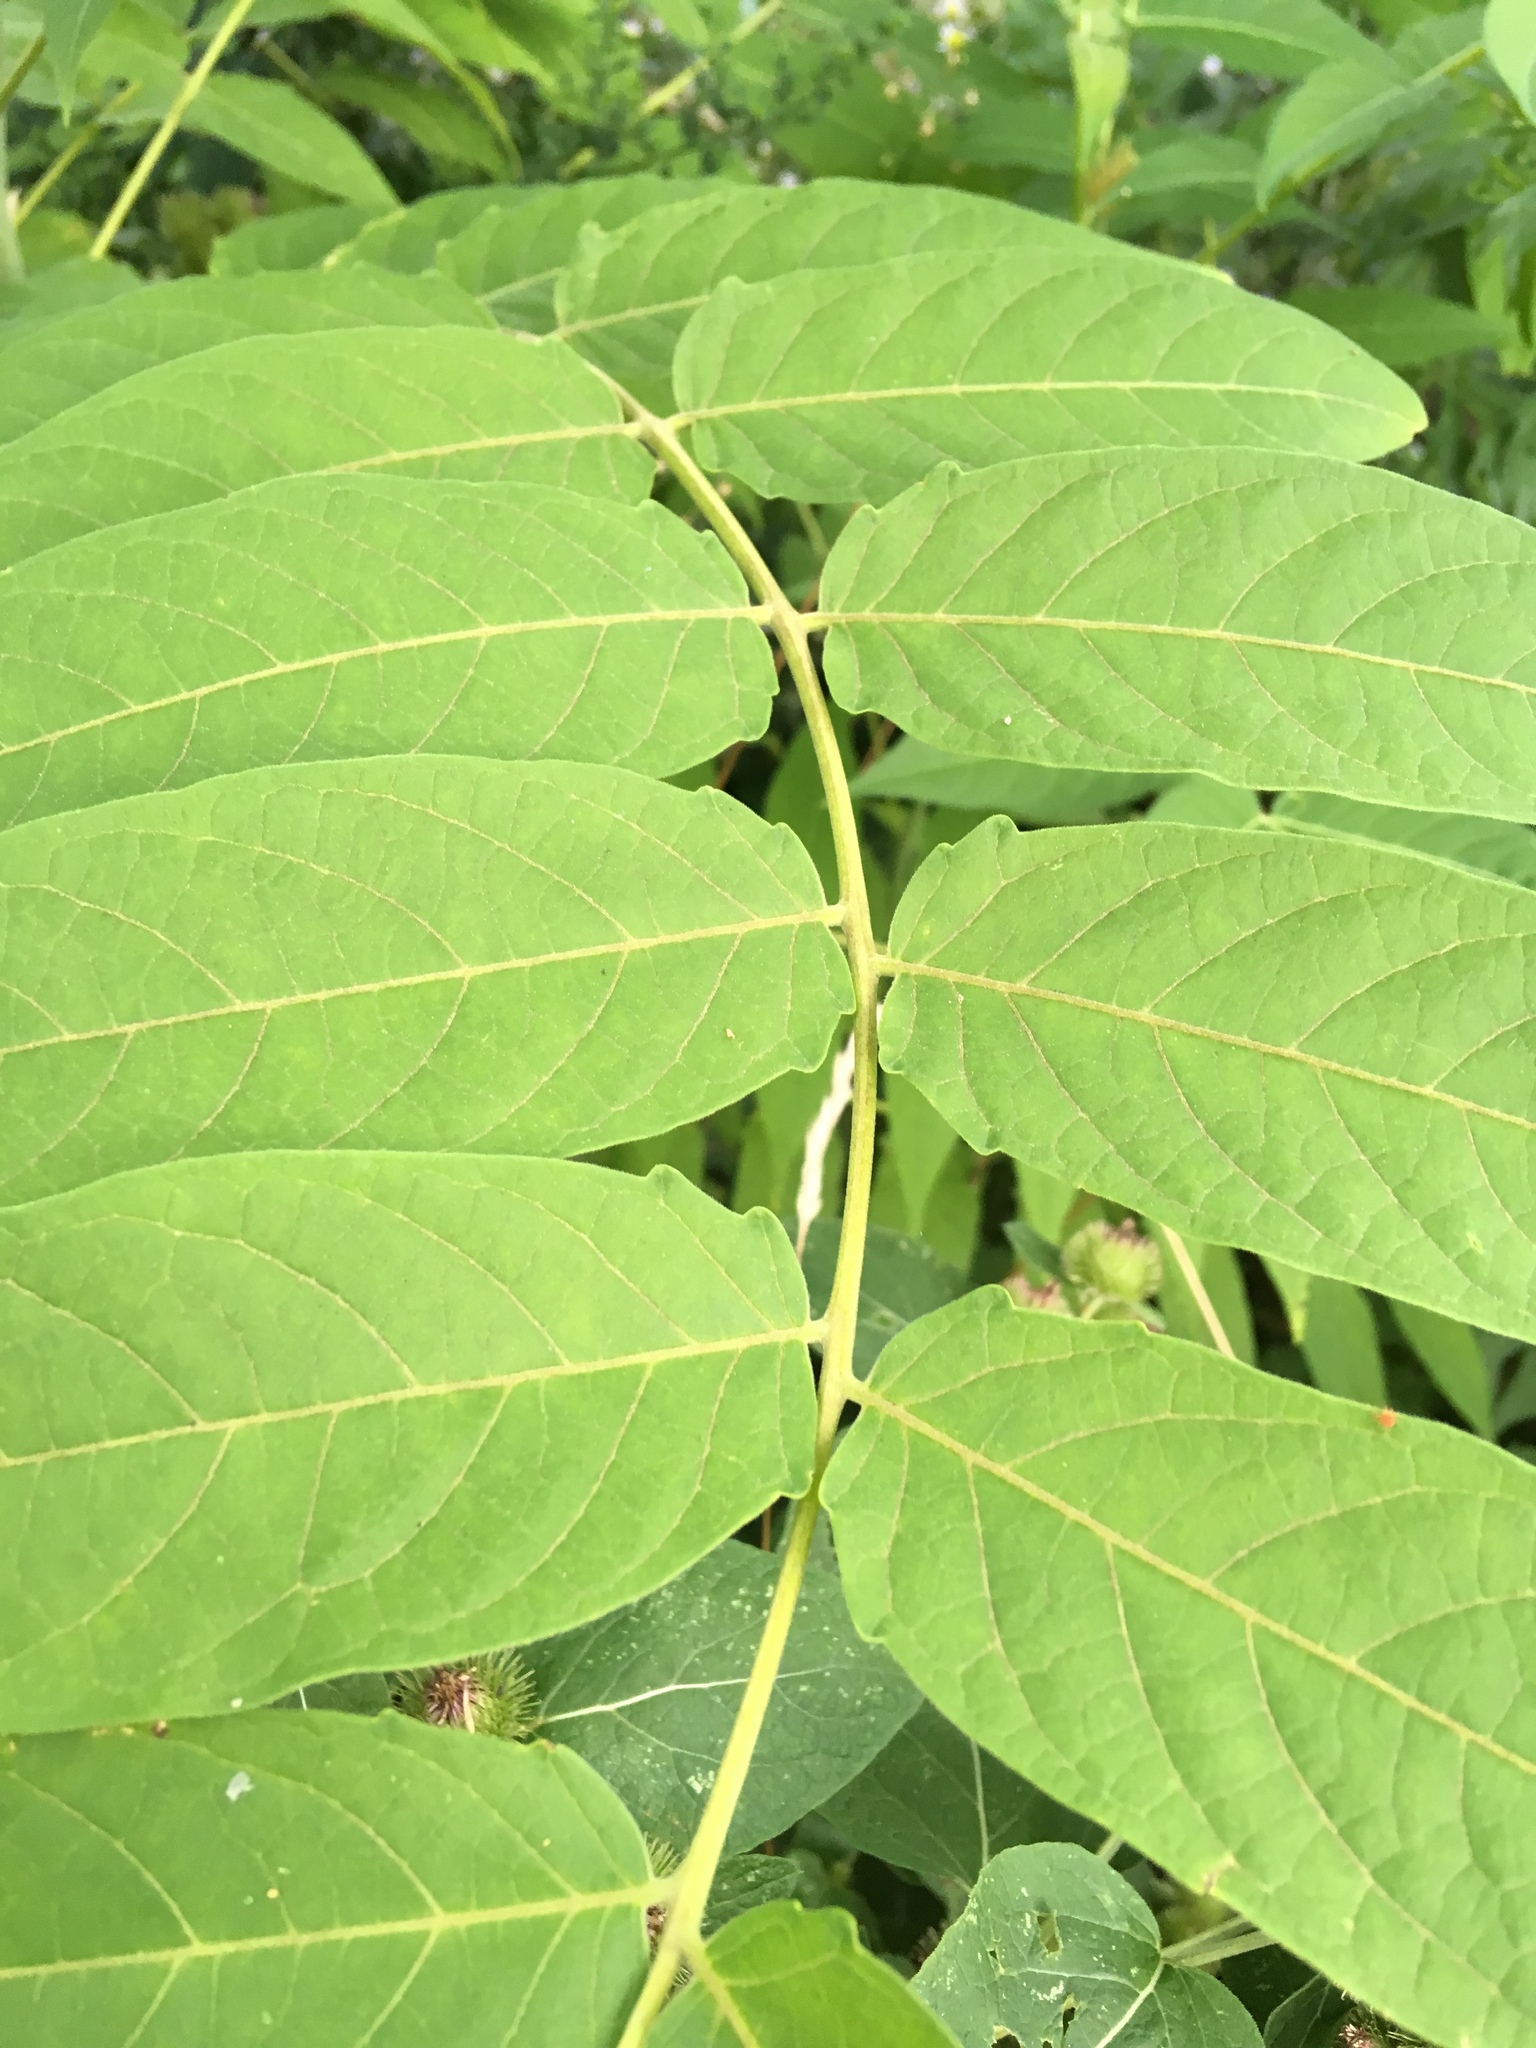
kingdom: Plantae
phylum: Tracheophyta
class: Magnoliopsida
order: Sapindales
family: Simaroubaceae
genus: Ailanthus
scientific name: Ailanthus altissima
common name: Tree-of-heaven
